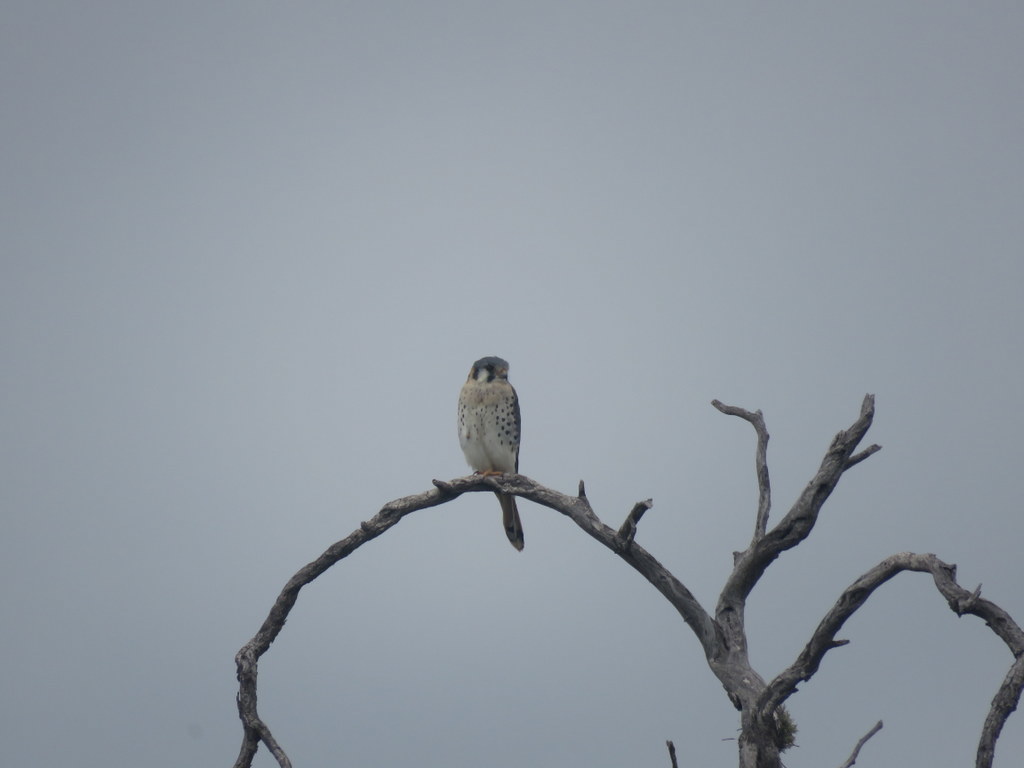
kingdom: Animalia
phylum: Chordata
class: Aves
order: Falconiformes
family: Falconidae
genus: Falco
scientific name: Falco sparverius
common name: American kestrel
